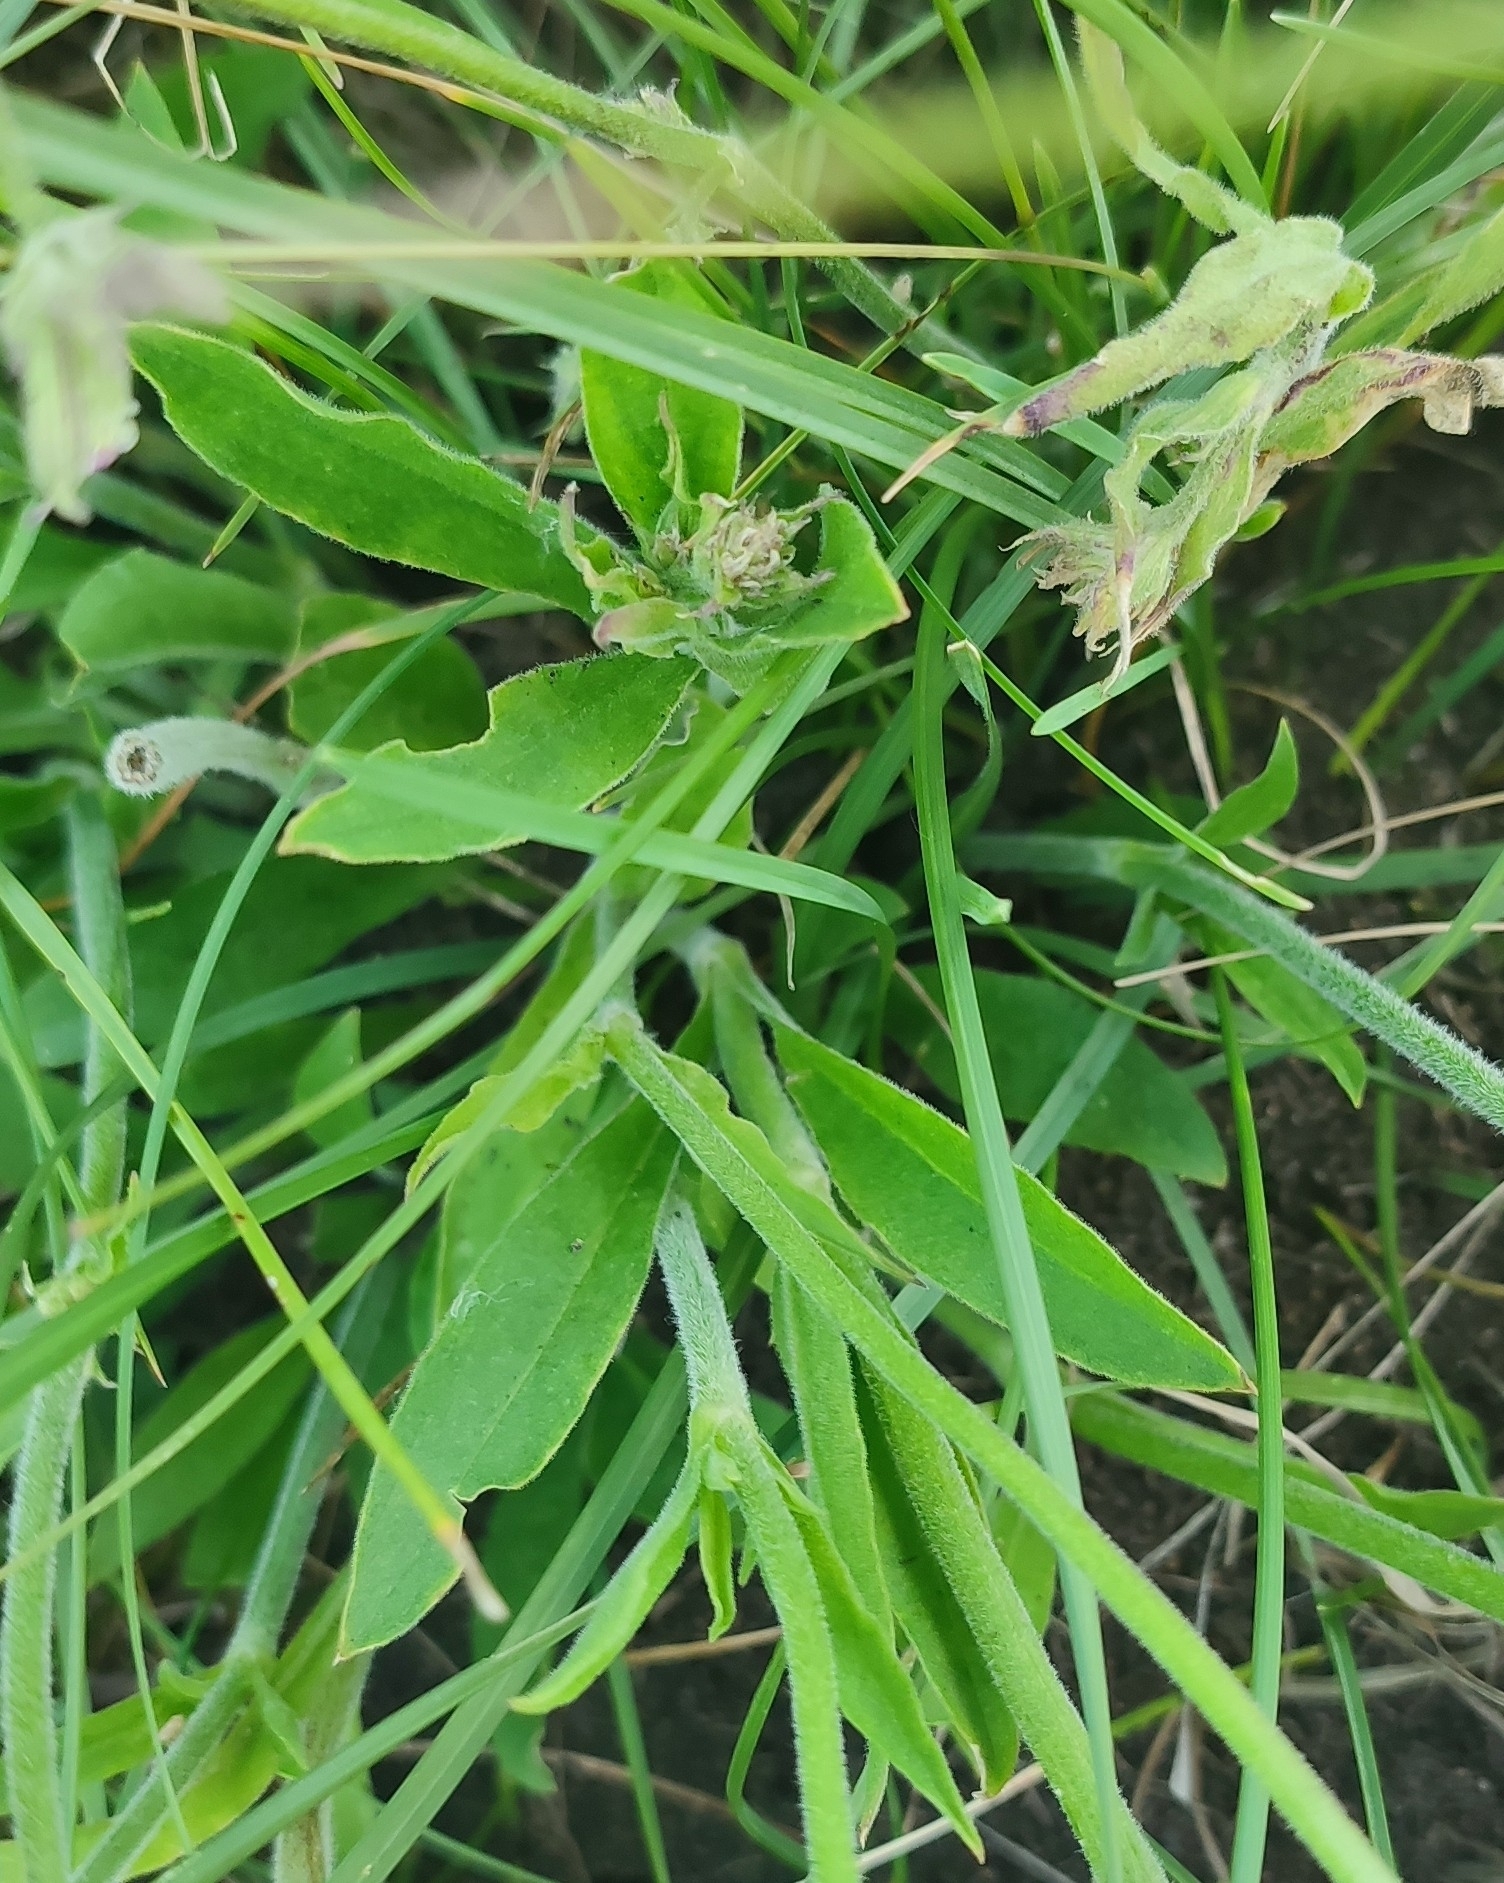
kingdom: Plantae
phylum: Tracheophyta
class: Magnoliopsida
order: Caryophyllales
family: Caryophyllaceae
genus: Silene
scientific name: Silene nutans
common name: Nottingham catchfly
